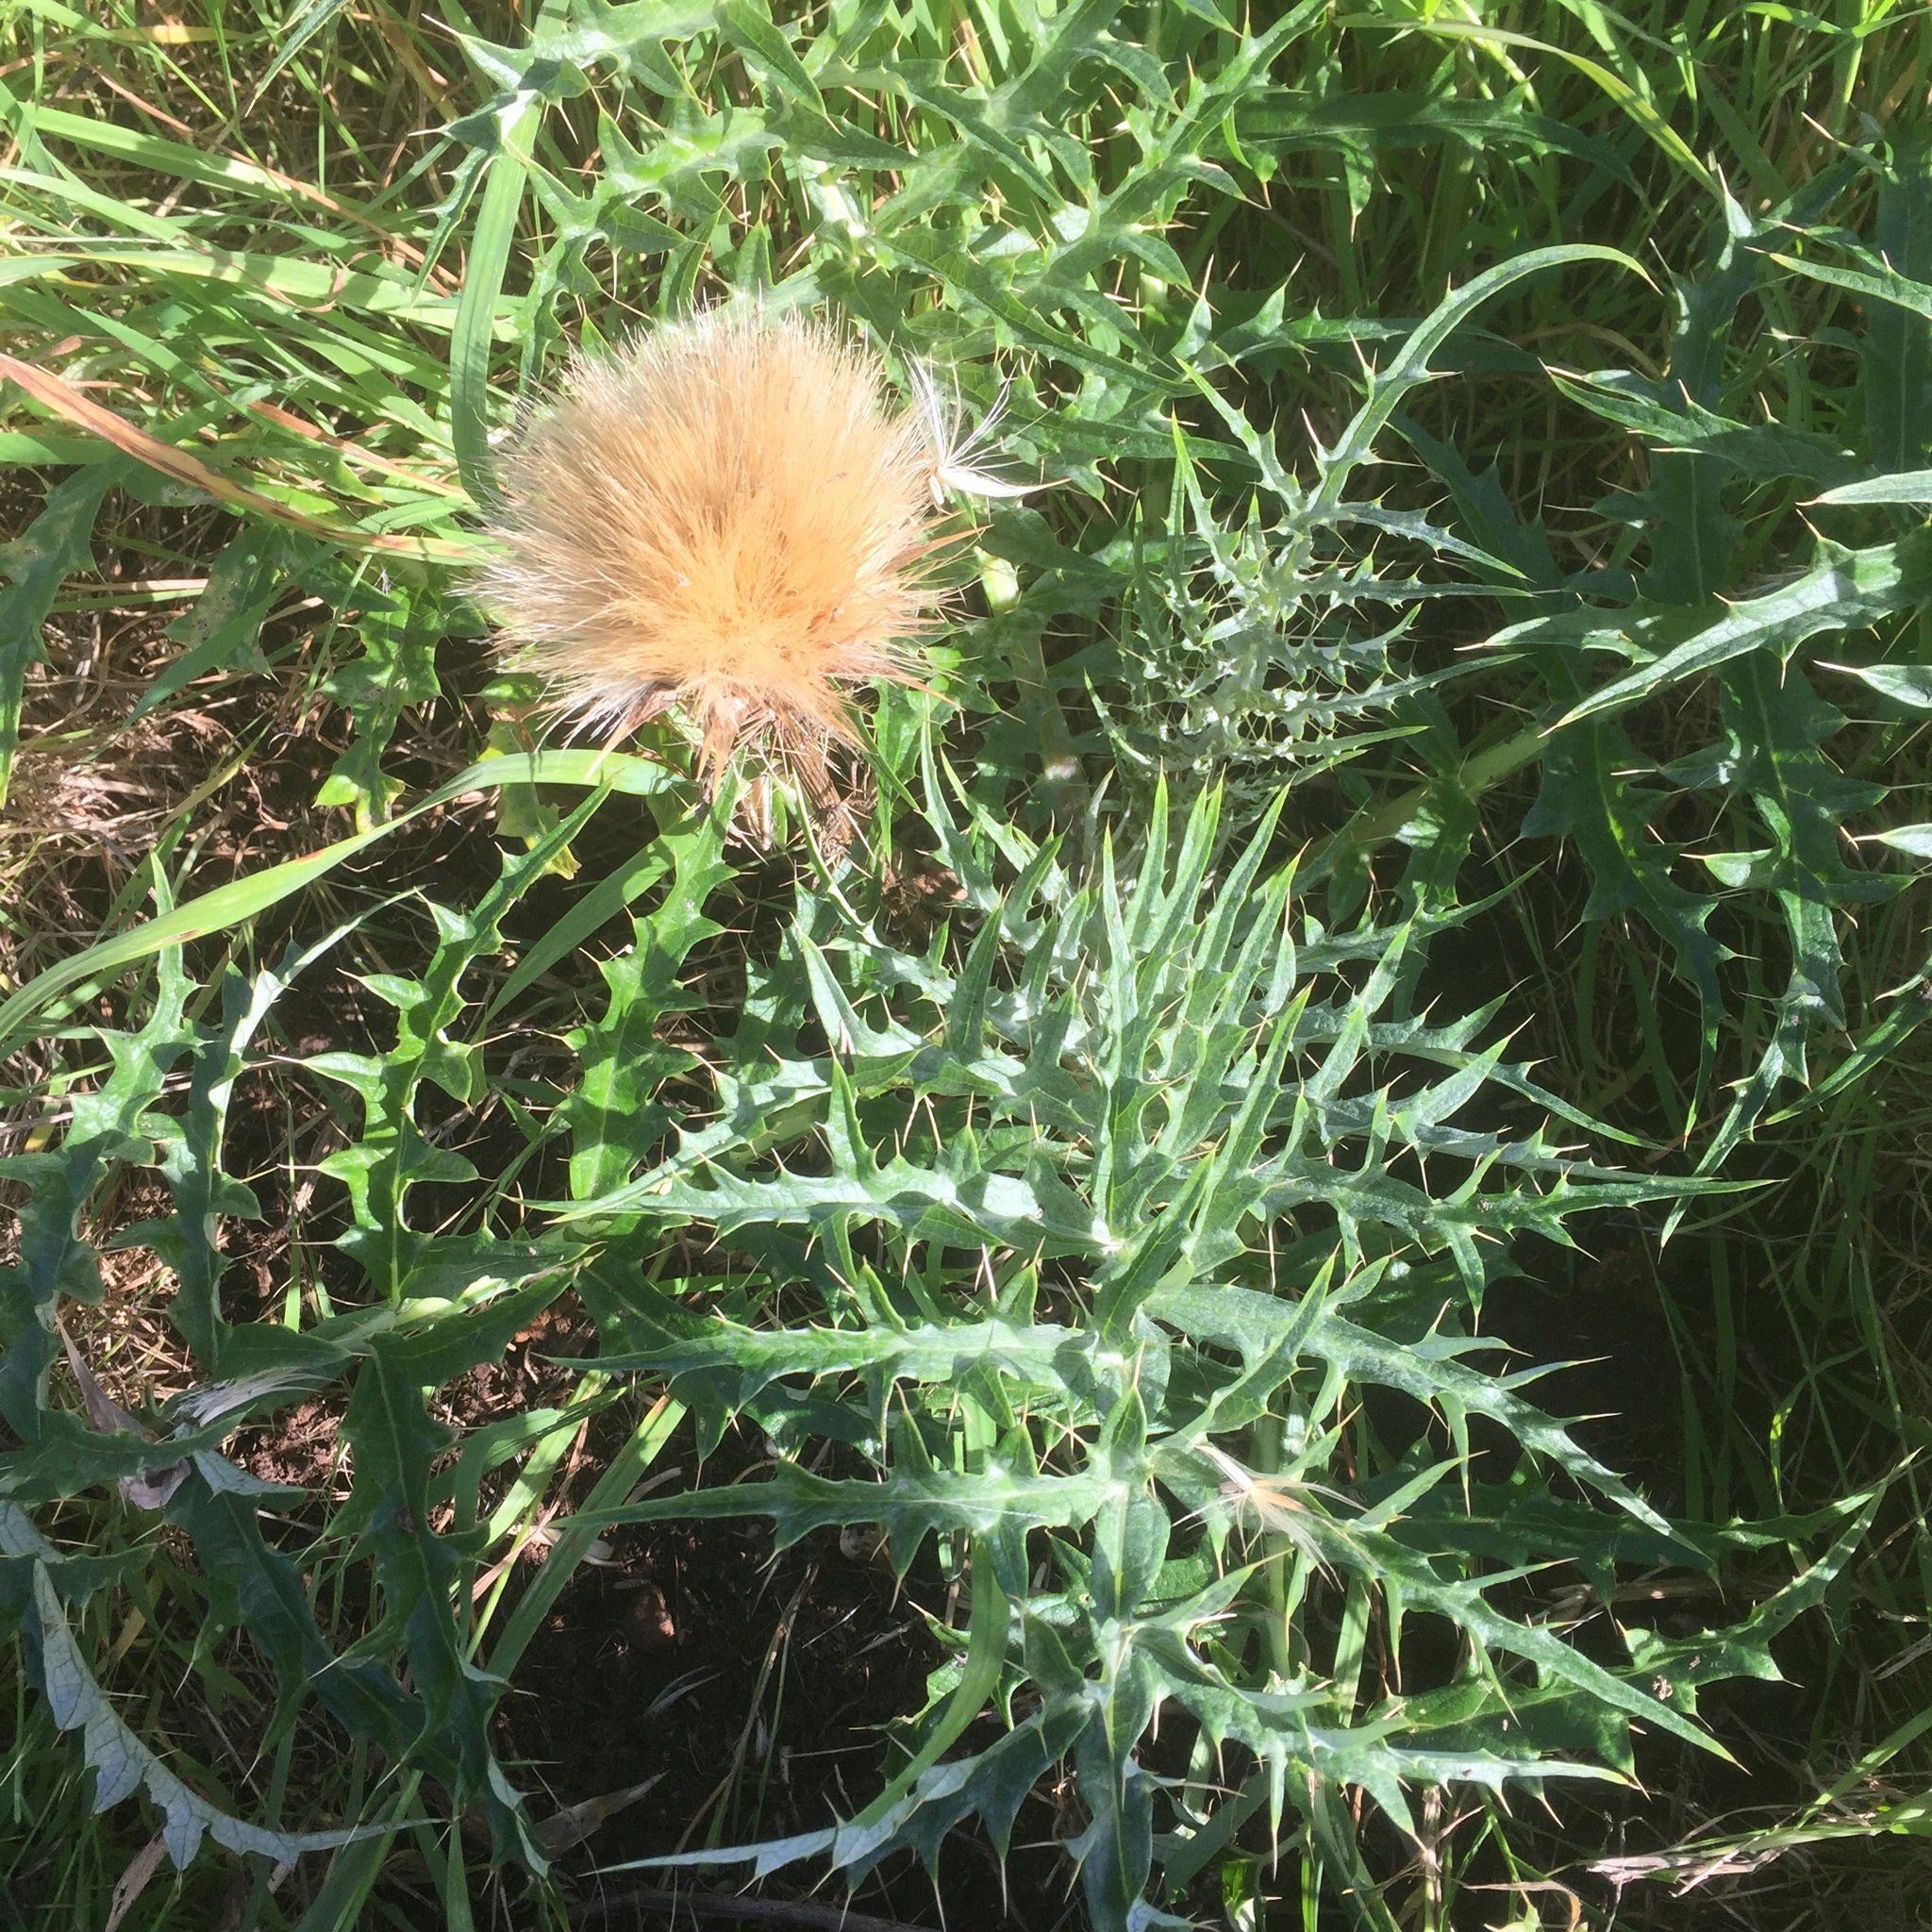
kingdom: Plantae
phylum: Tracheophyta
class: Magnoliopsida
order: Asterales
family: Asteraceae
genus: Cynara
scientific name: Cynara cardunculus
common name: Globe artichoke
